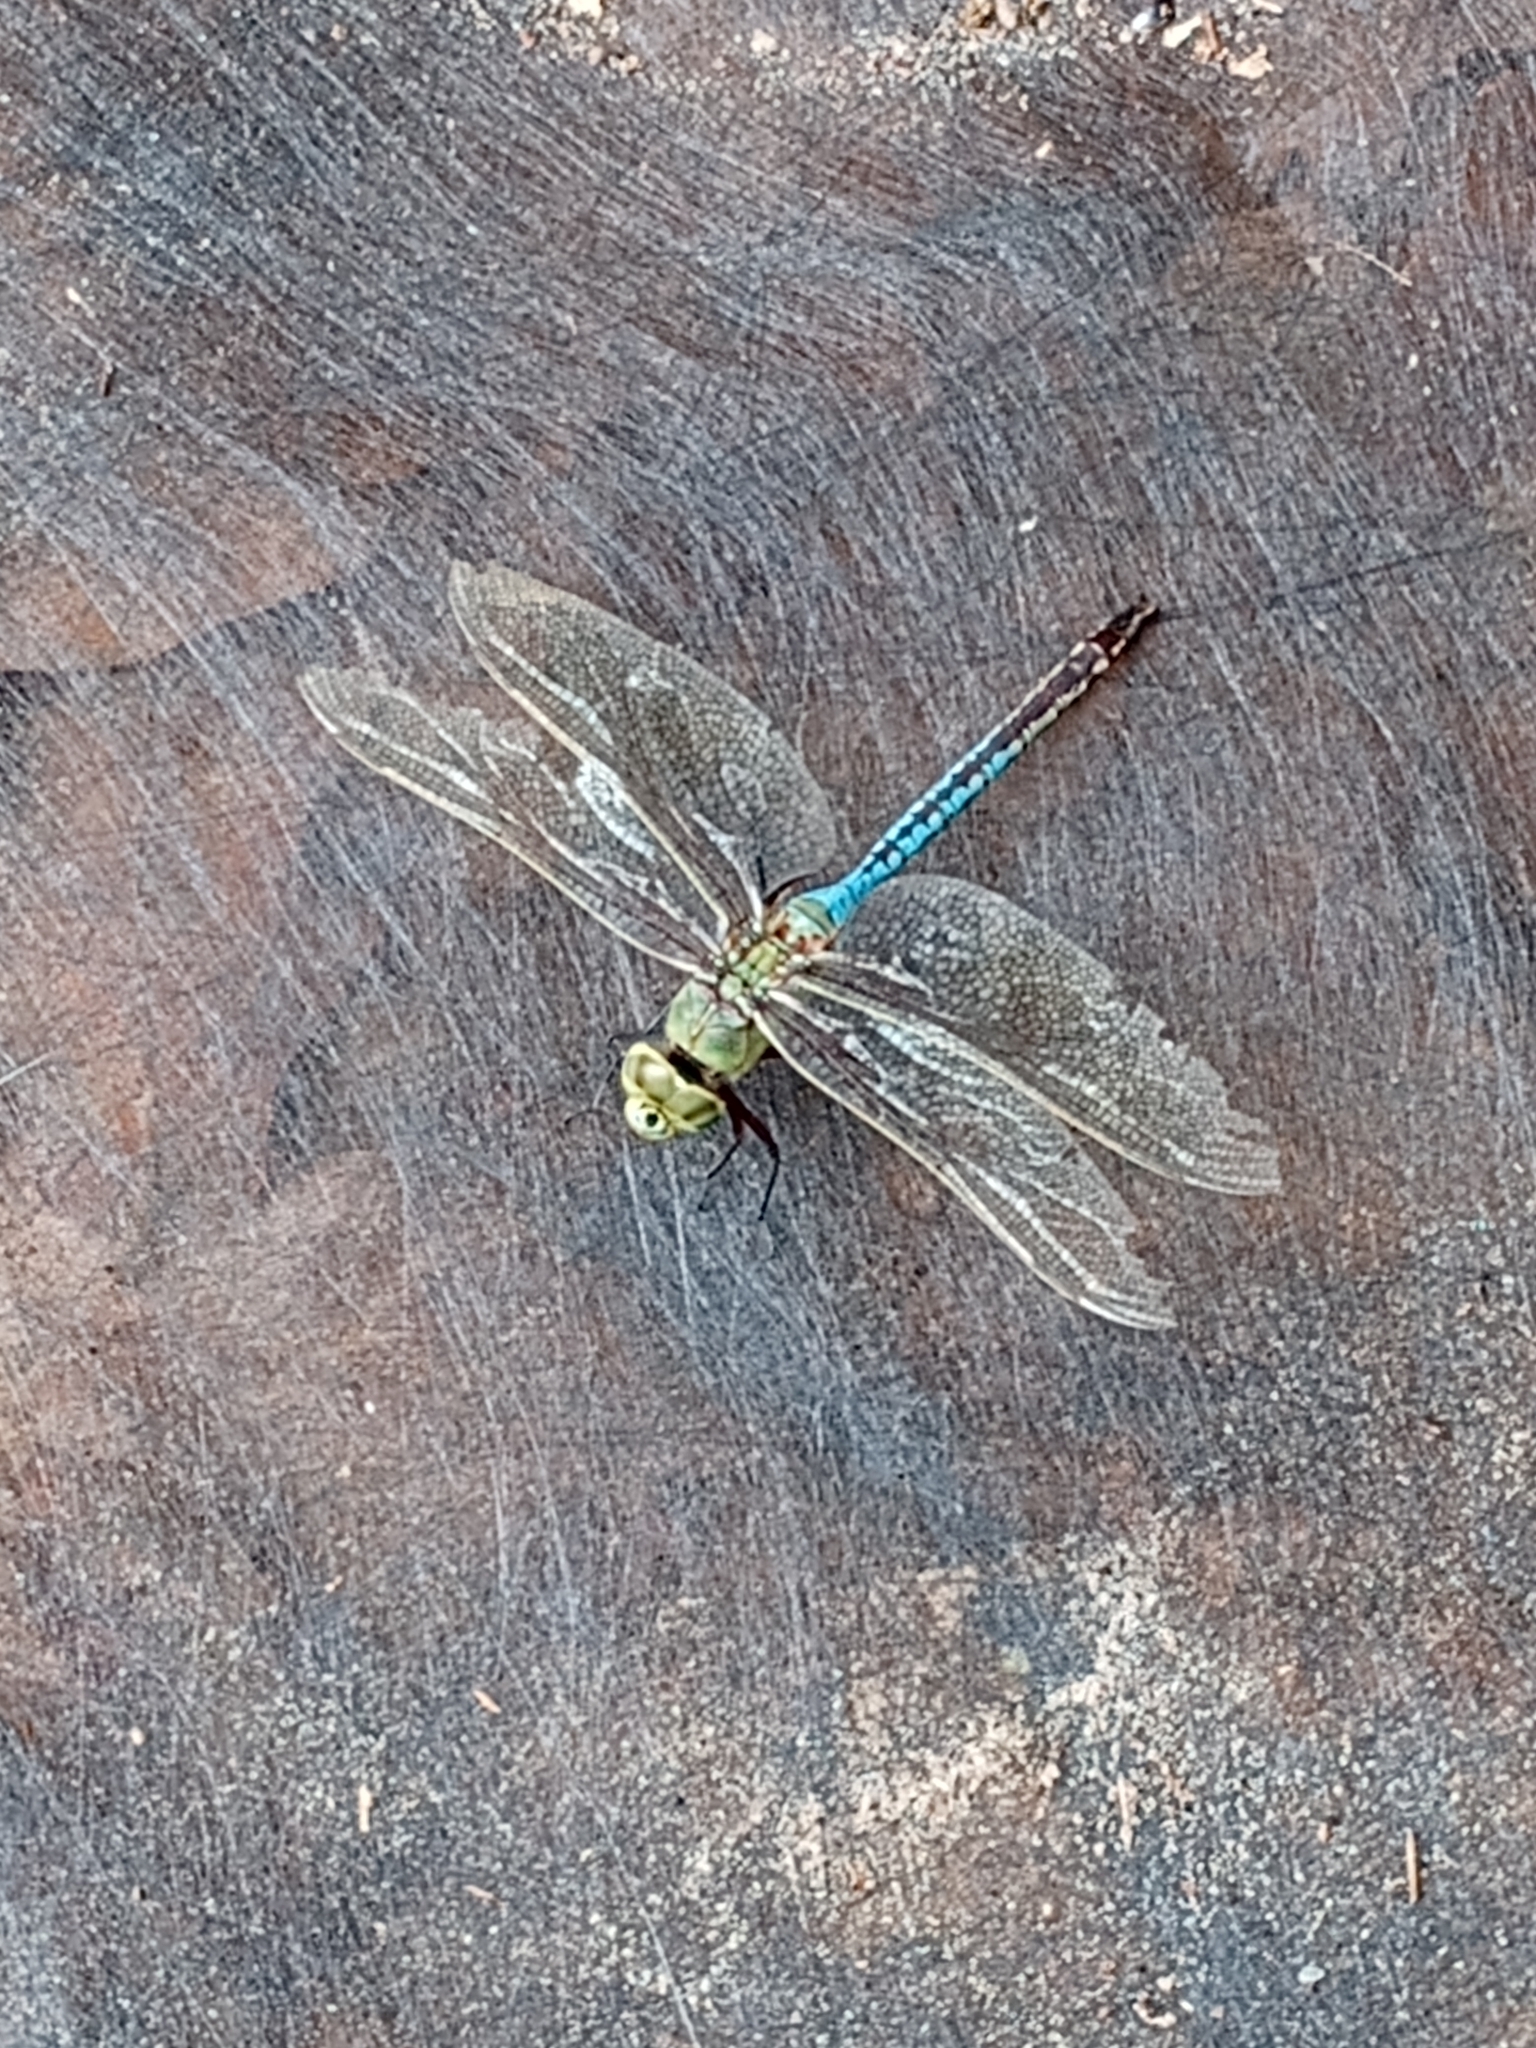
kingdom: Animalia
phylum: Arthropoda
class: Insecta
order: Odonata
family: Aeshnidae
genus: Anax
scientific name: Anax junius
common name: Common green darner
